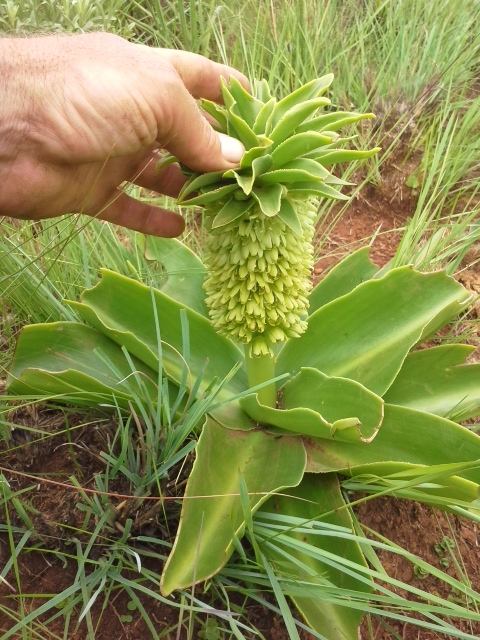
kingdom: Plantae
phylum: Tracheophyta
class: Liliopsida
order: Asparagales
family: Asparagaceae
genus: Eucomis
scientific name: Eucomis autumnalis
